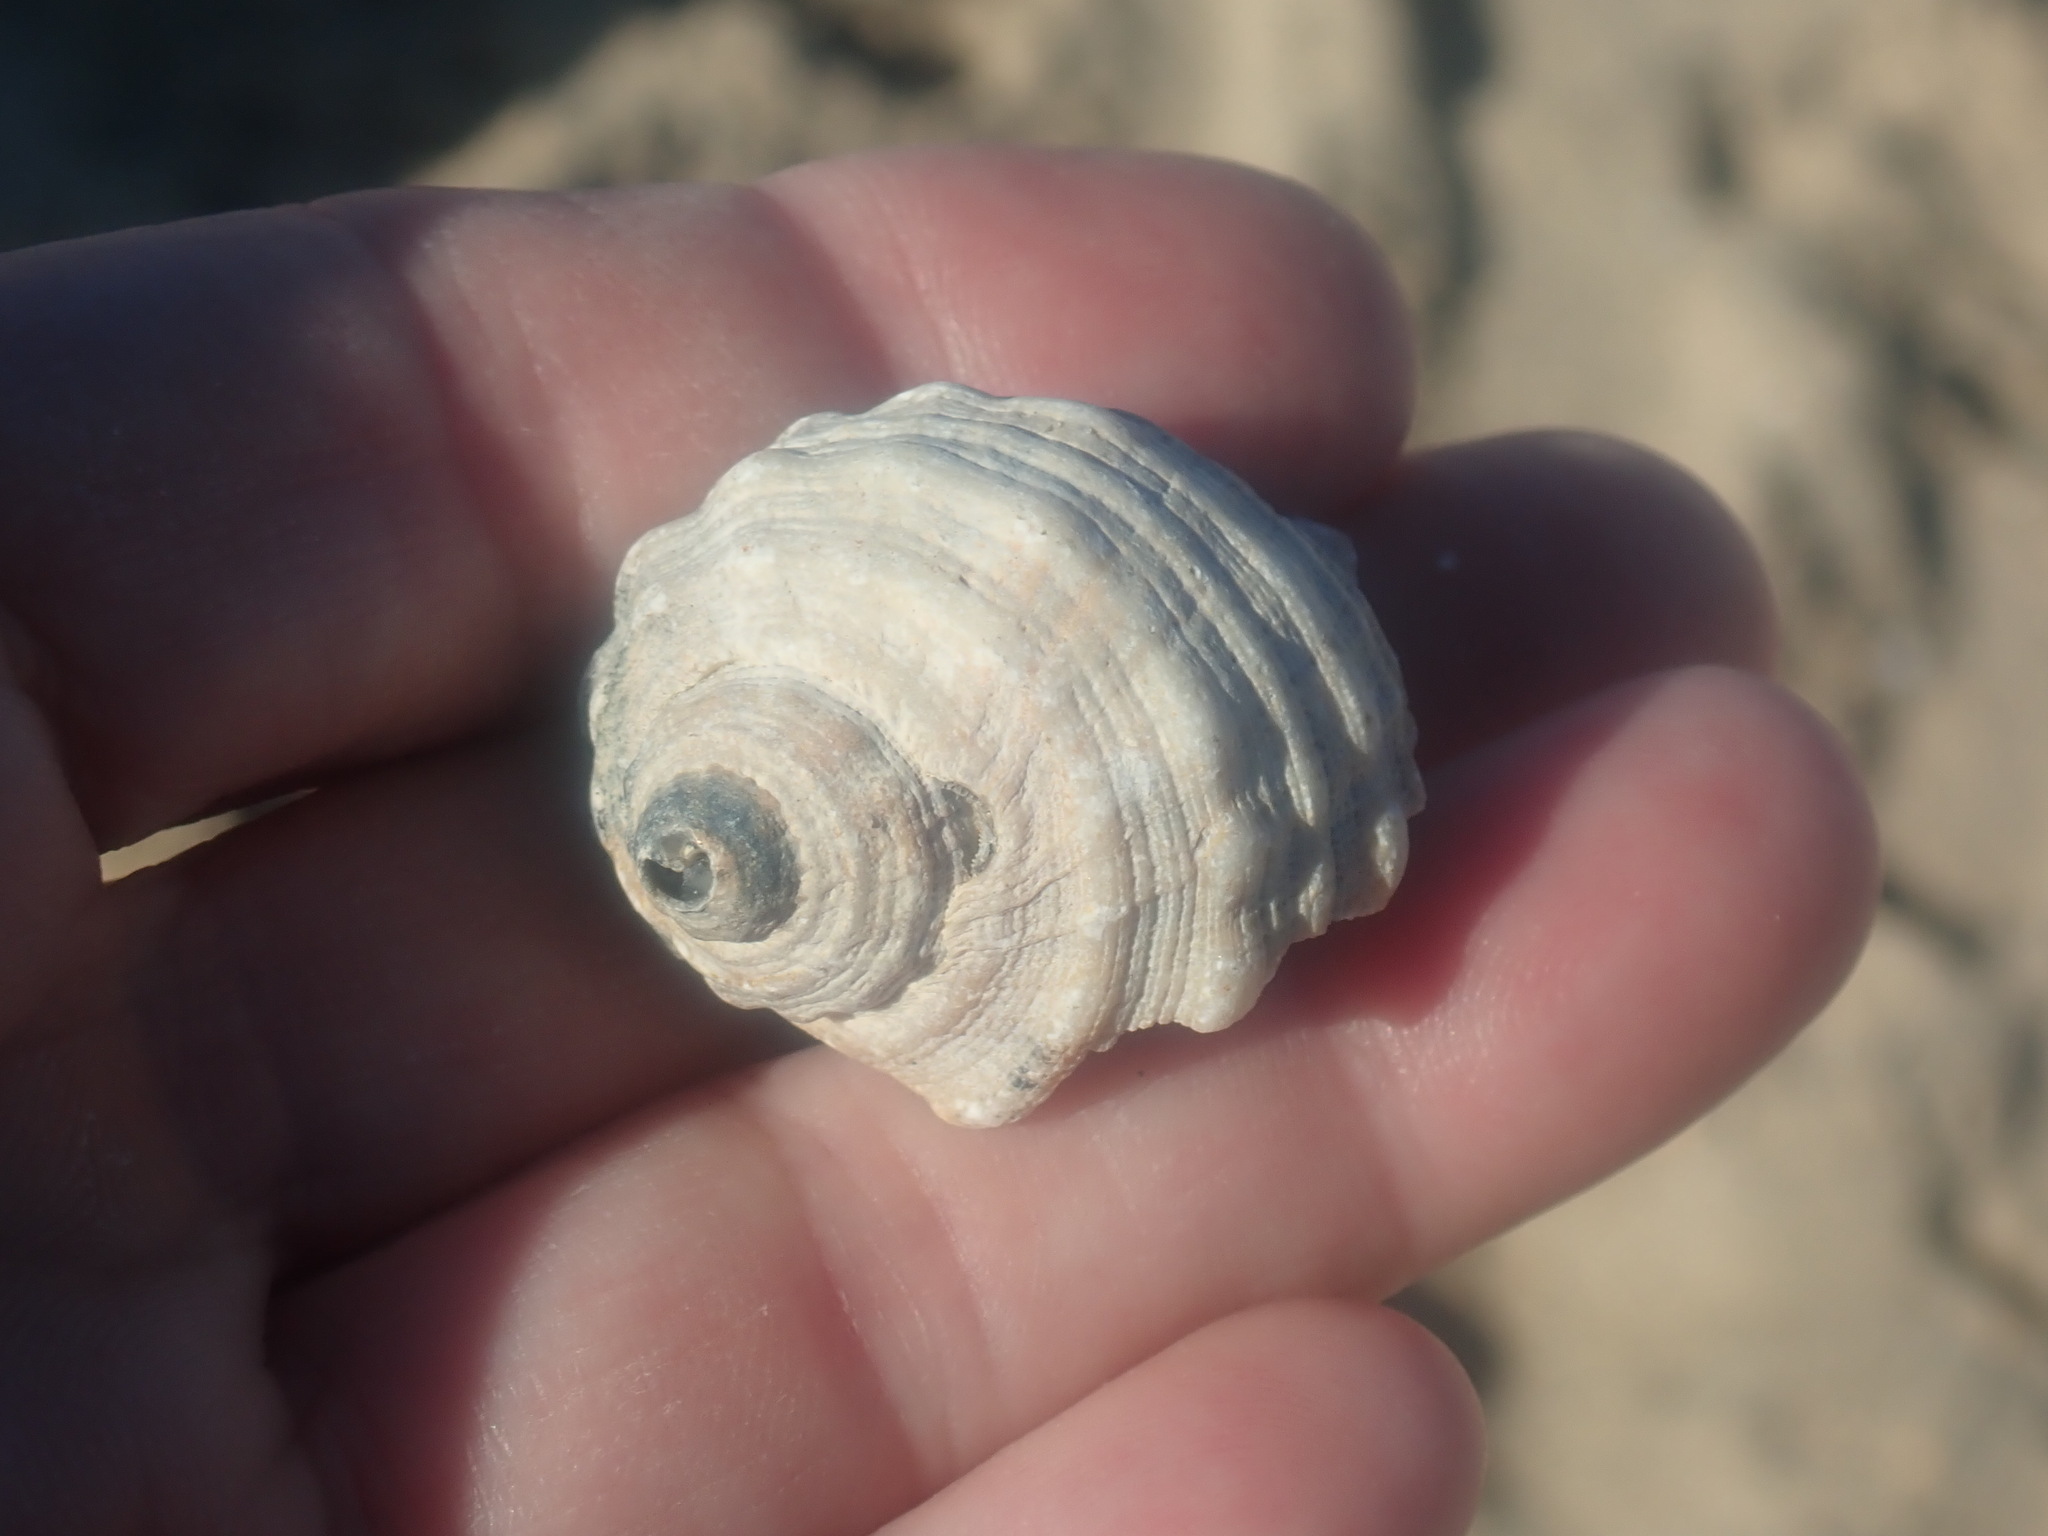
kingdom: Animalia
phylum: Mollusca
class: Gastropoda
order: Neogastropoda
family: Muricidae
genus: Dicathais
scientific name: Dicathais orbita
